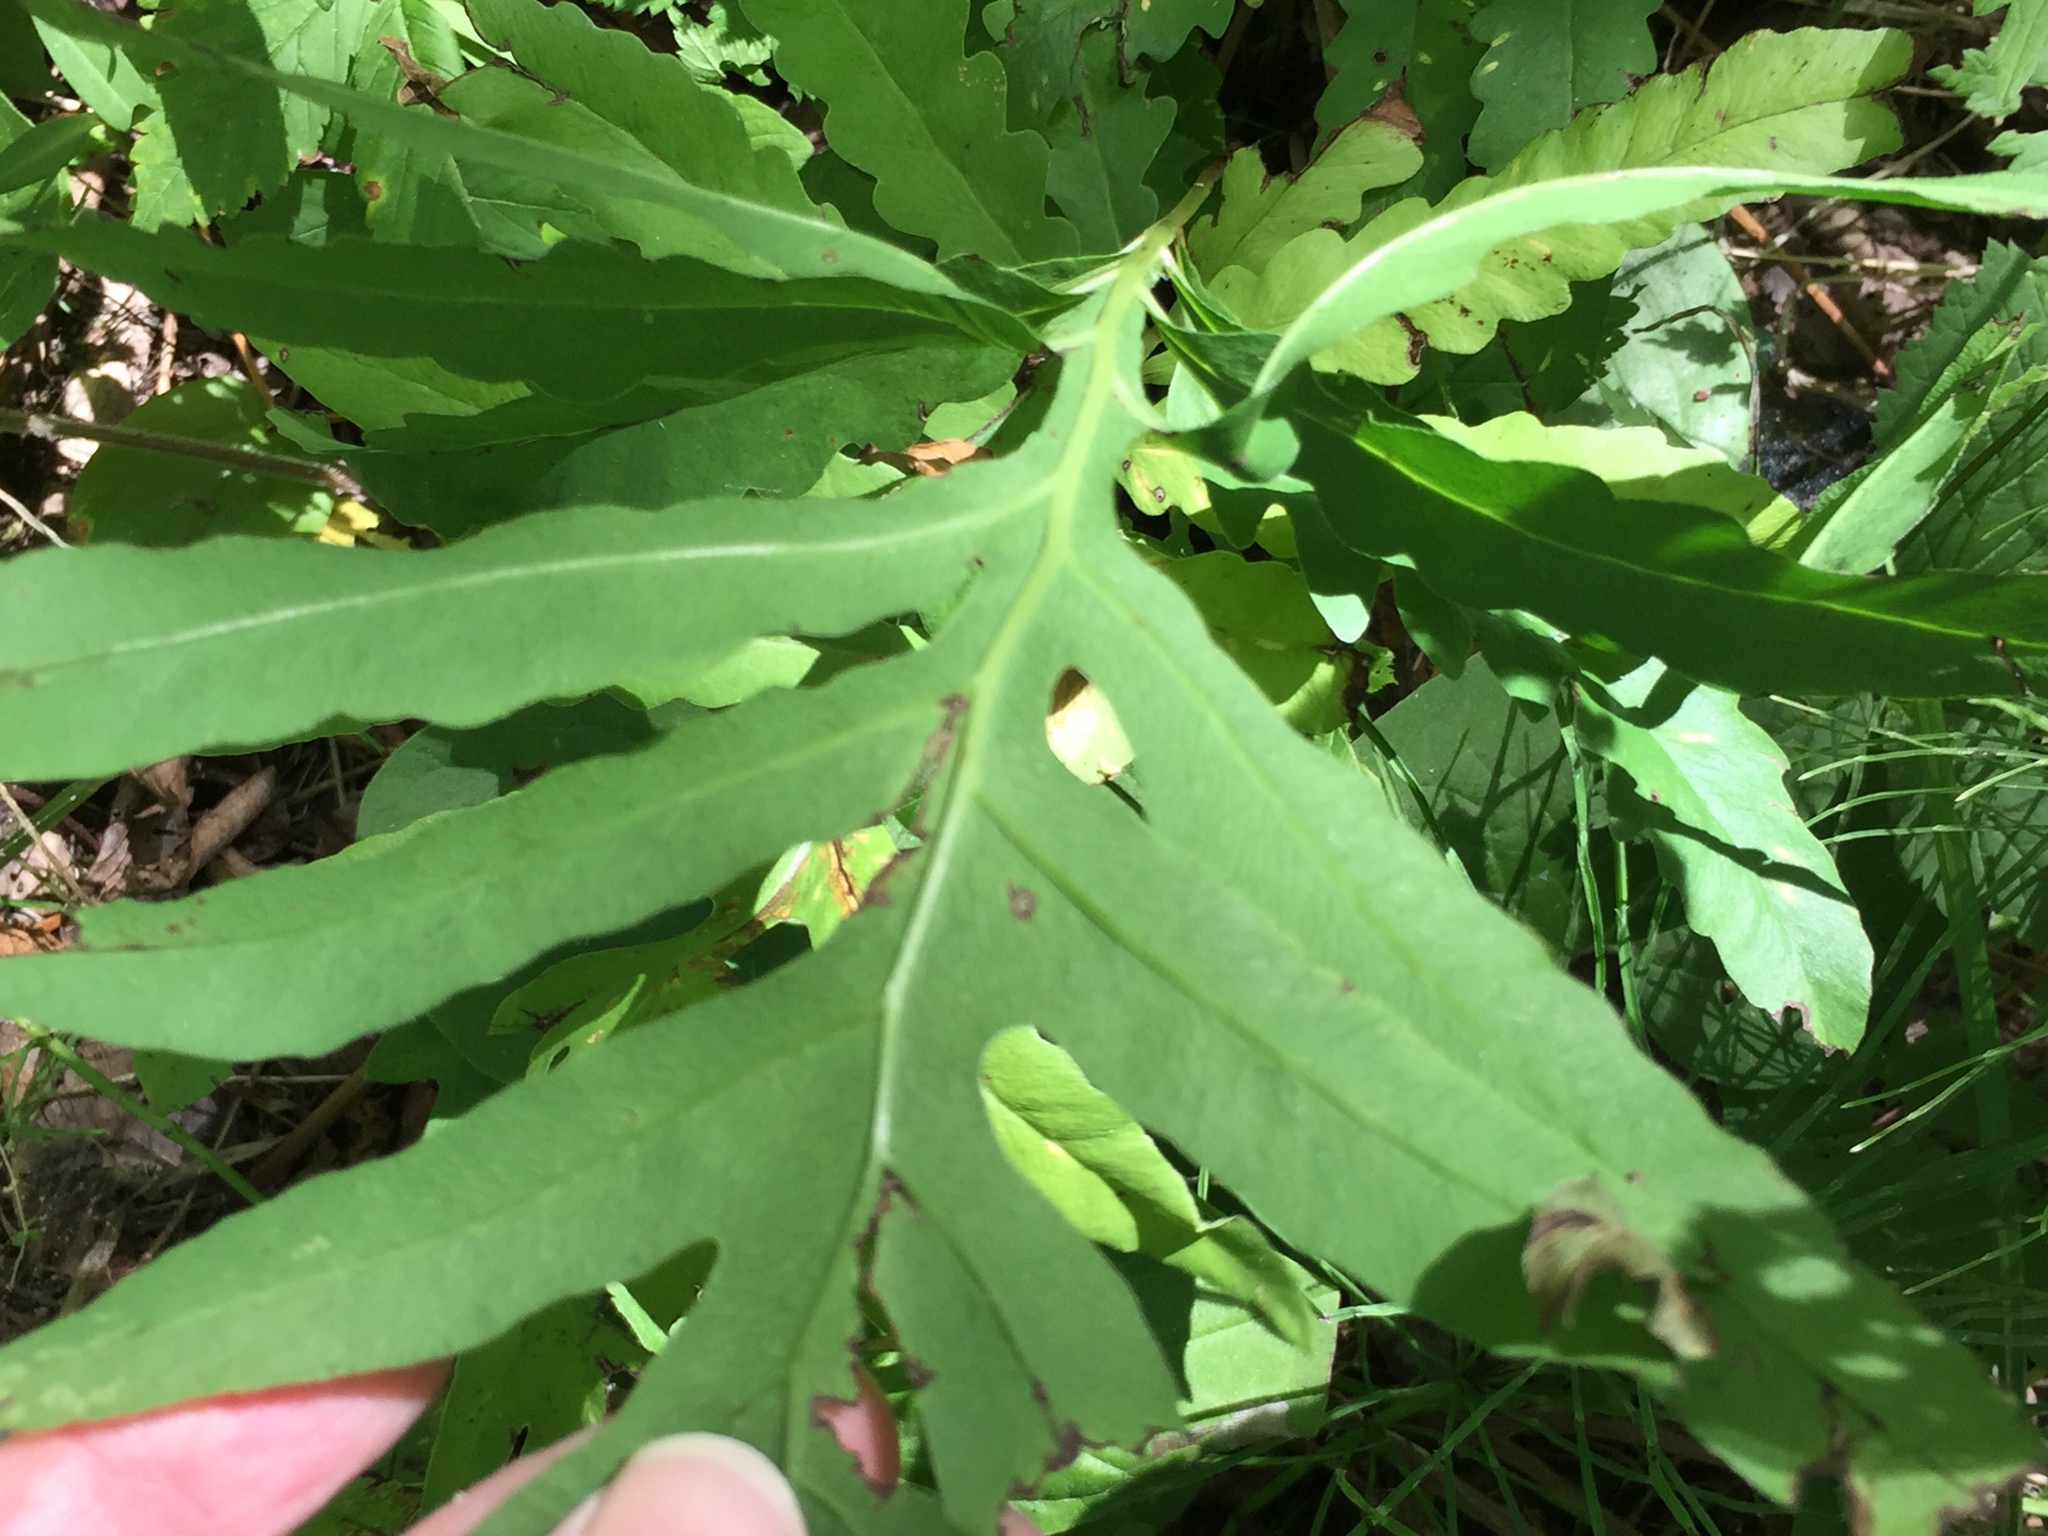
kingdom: Plantae
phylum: Tracheophyta
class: Polypodiopsida
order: Polypodiales
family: Onocleaceae
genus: Onoclea
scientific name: Onoclea sensibilis
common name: Sensitive fern
